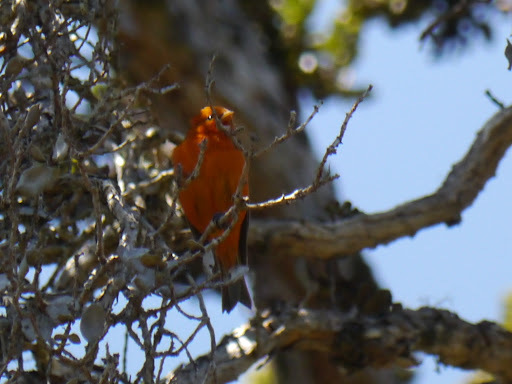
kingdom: Animalia
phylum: Chordata
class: Aves
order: Passeriformes
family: Fringillidae
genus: Loxops
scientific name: Loxops coccineus
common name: Hawaii akepa
